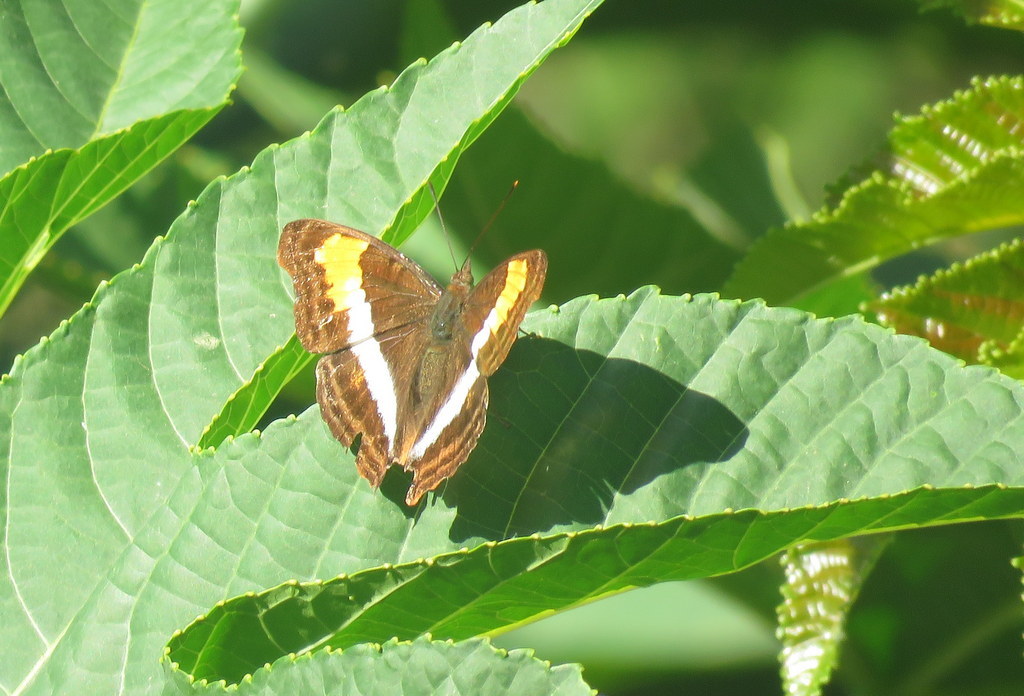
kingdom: Animalia
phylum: Arthropoda
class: Insecta
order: Lepidoptera
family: Nymphalidae
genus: Doxocopa
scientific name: Doxocopa laurentia
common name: Turquoise emperor
